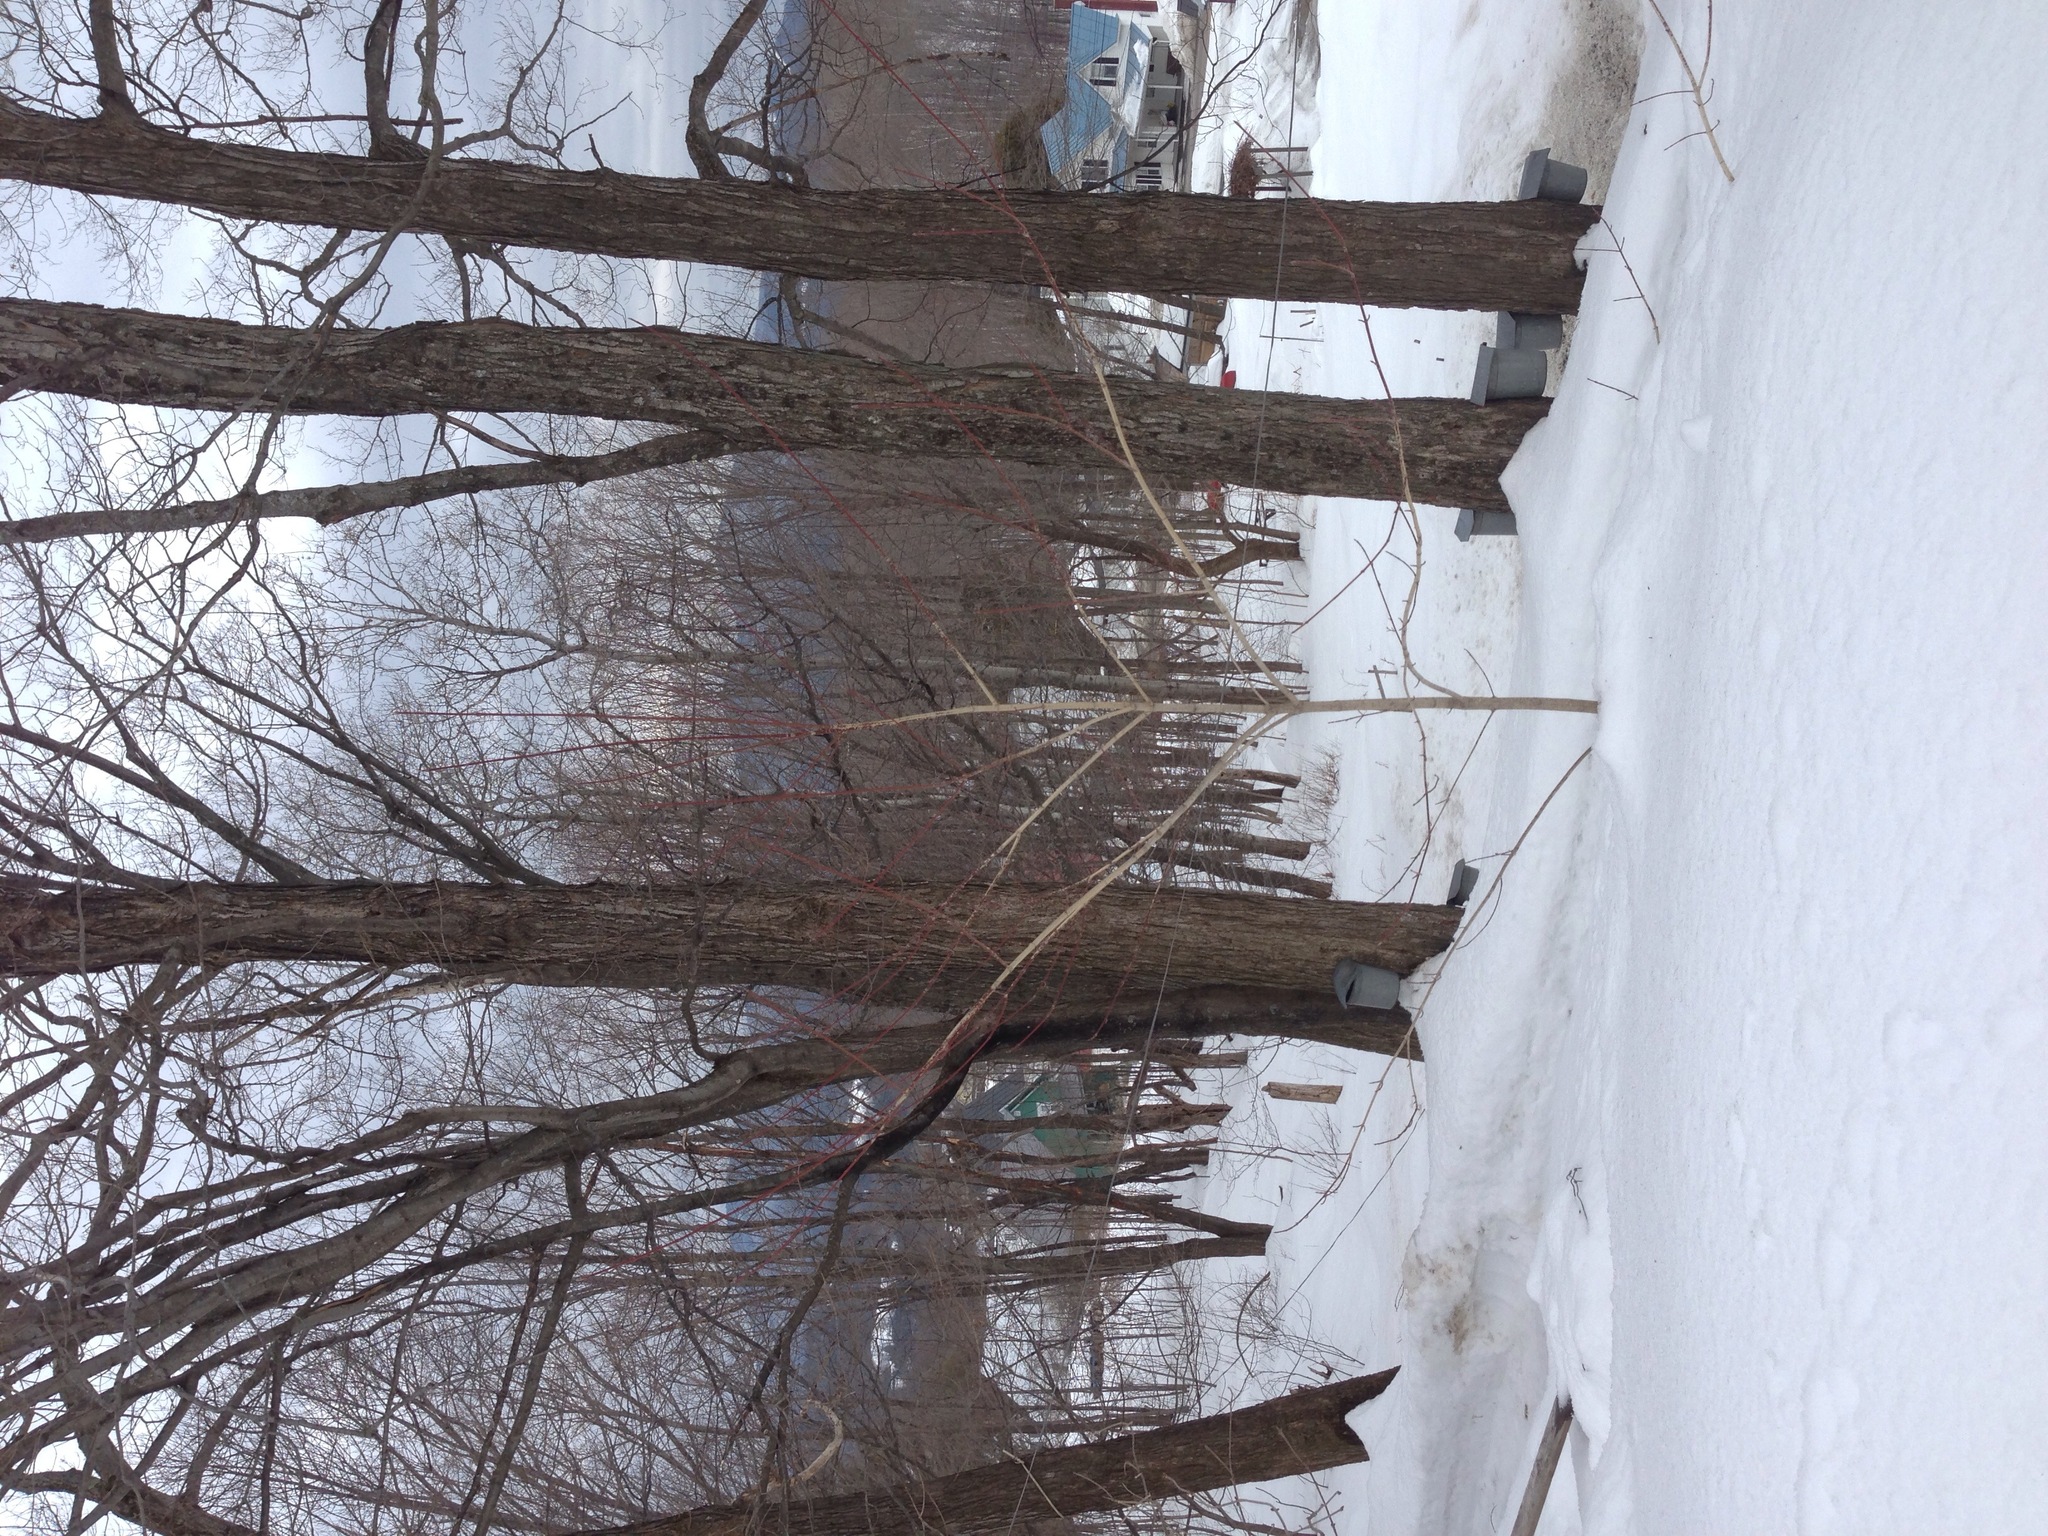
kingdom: Plantae
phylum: Tracheophyta
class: Magnoliopsida
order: Sapindales
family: Sapindaceae
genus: Acer
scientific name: Acer saccharum
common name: Sugar maple
